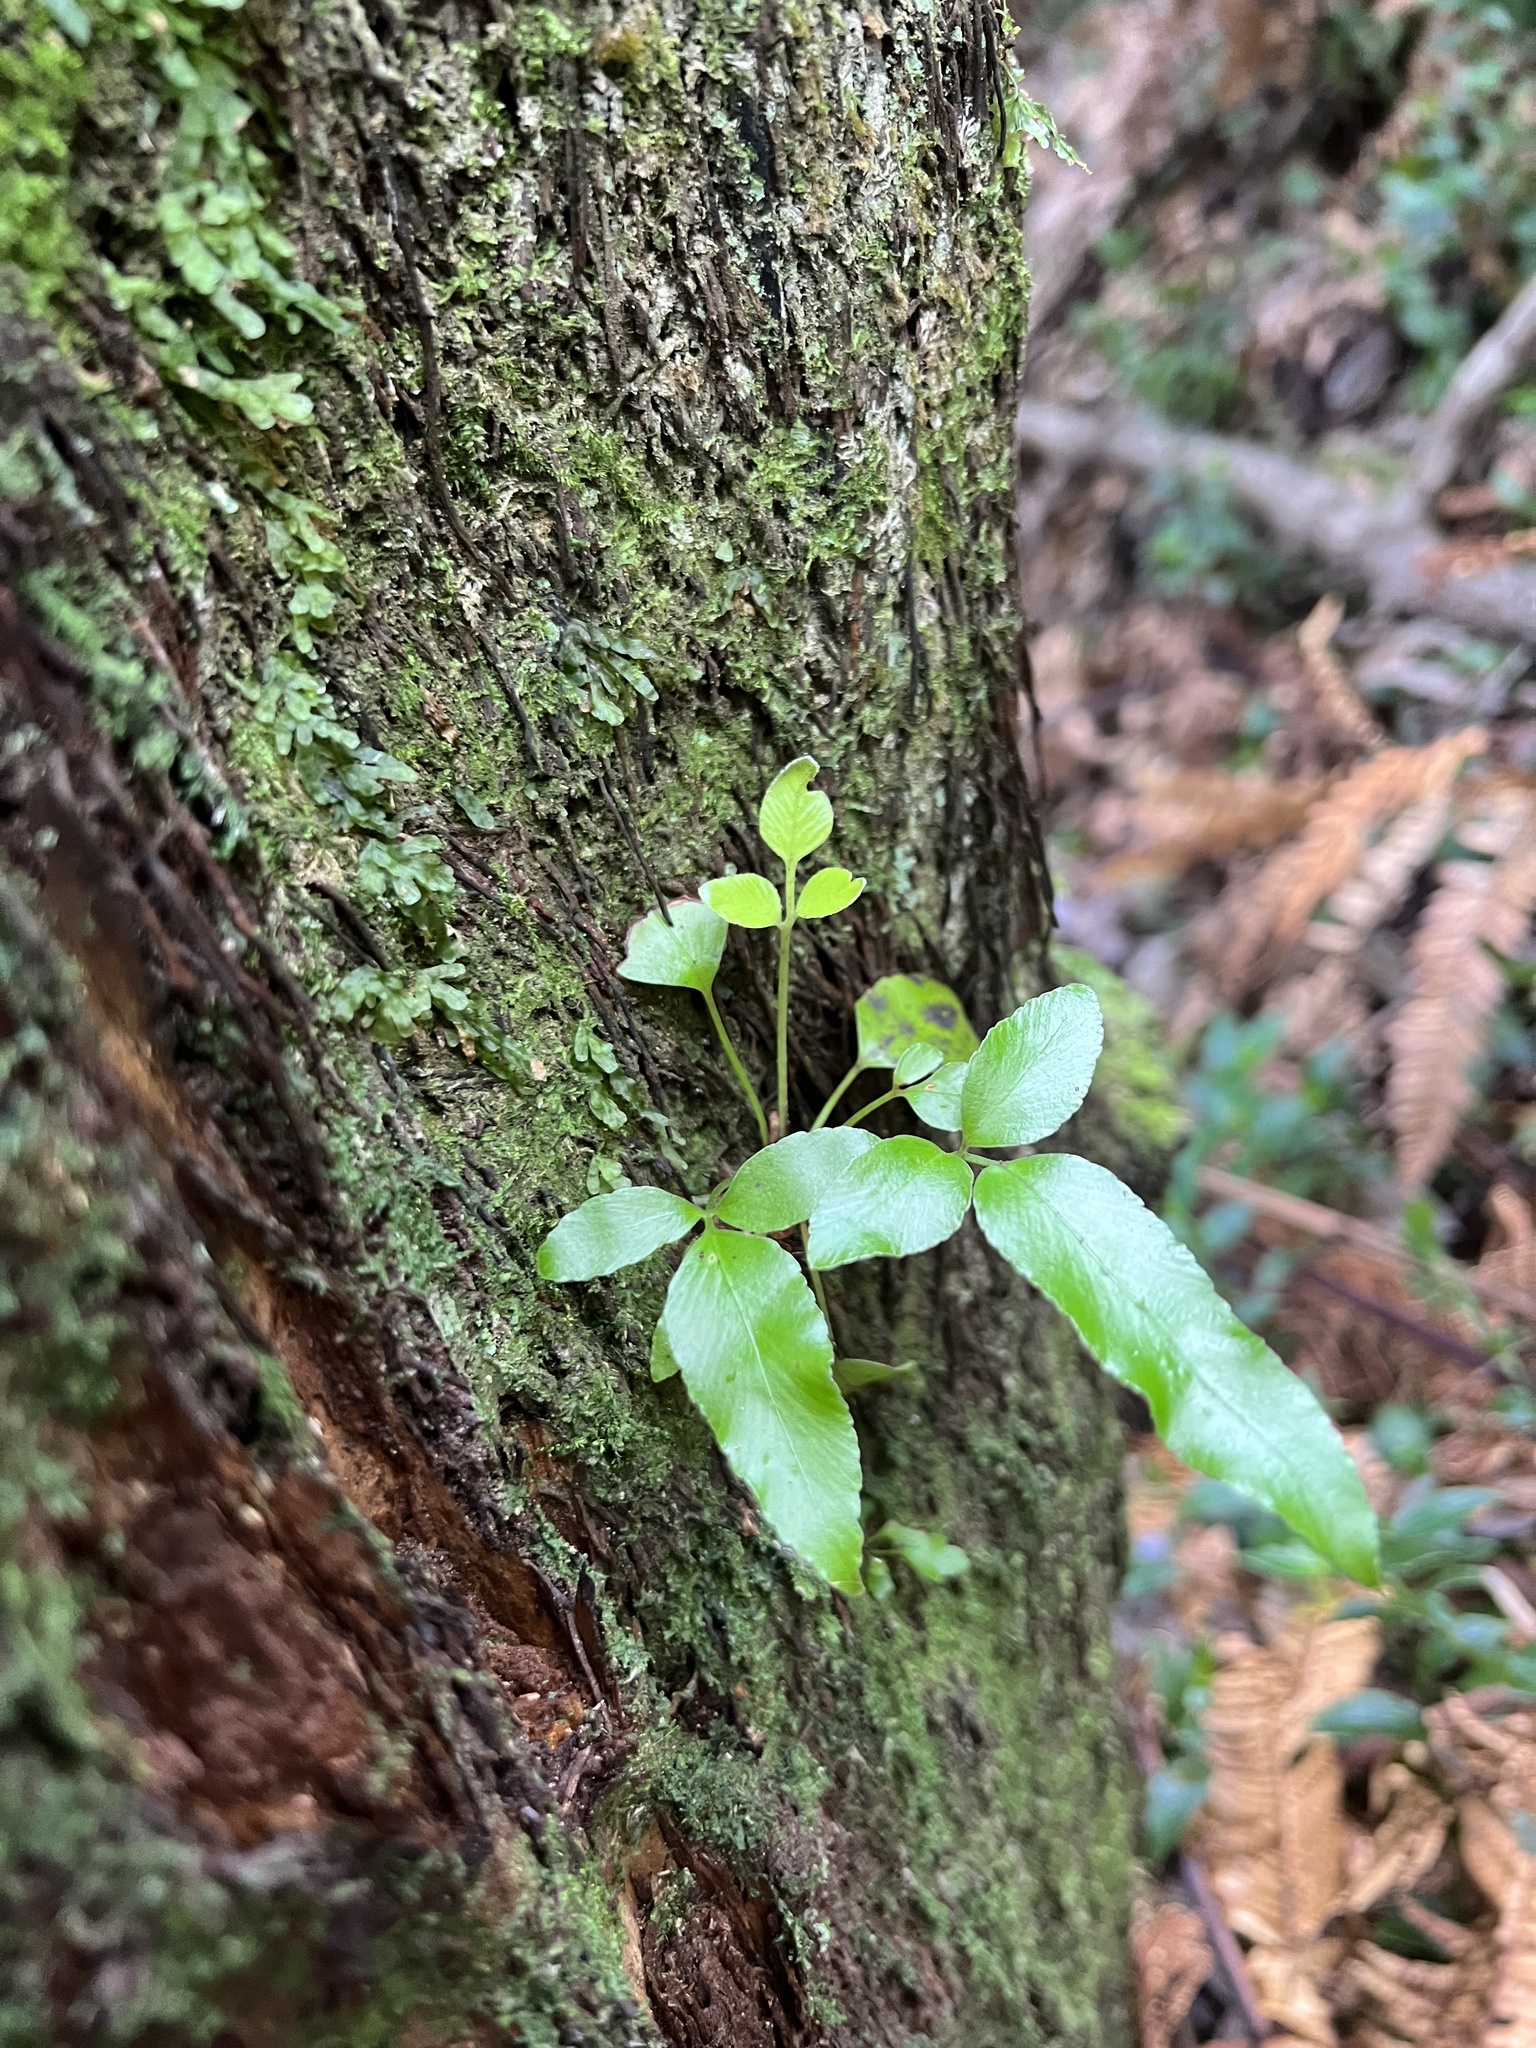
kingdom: Plantae
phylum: Tracheophyta
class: Polypodiopsida
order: Polypodiales
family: Aspleniaceae
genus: Asplenium
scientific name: Asplenium oblongifolium
